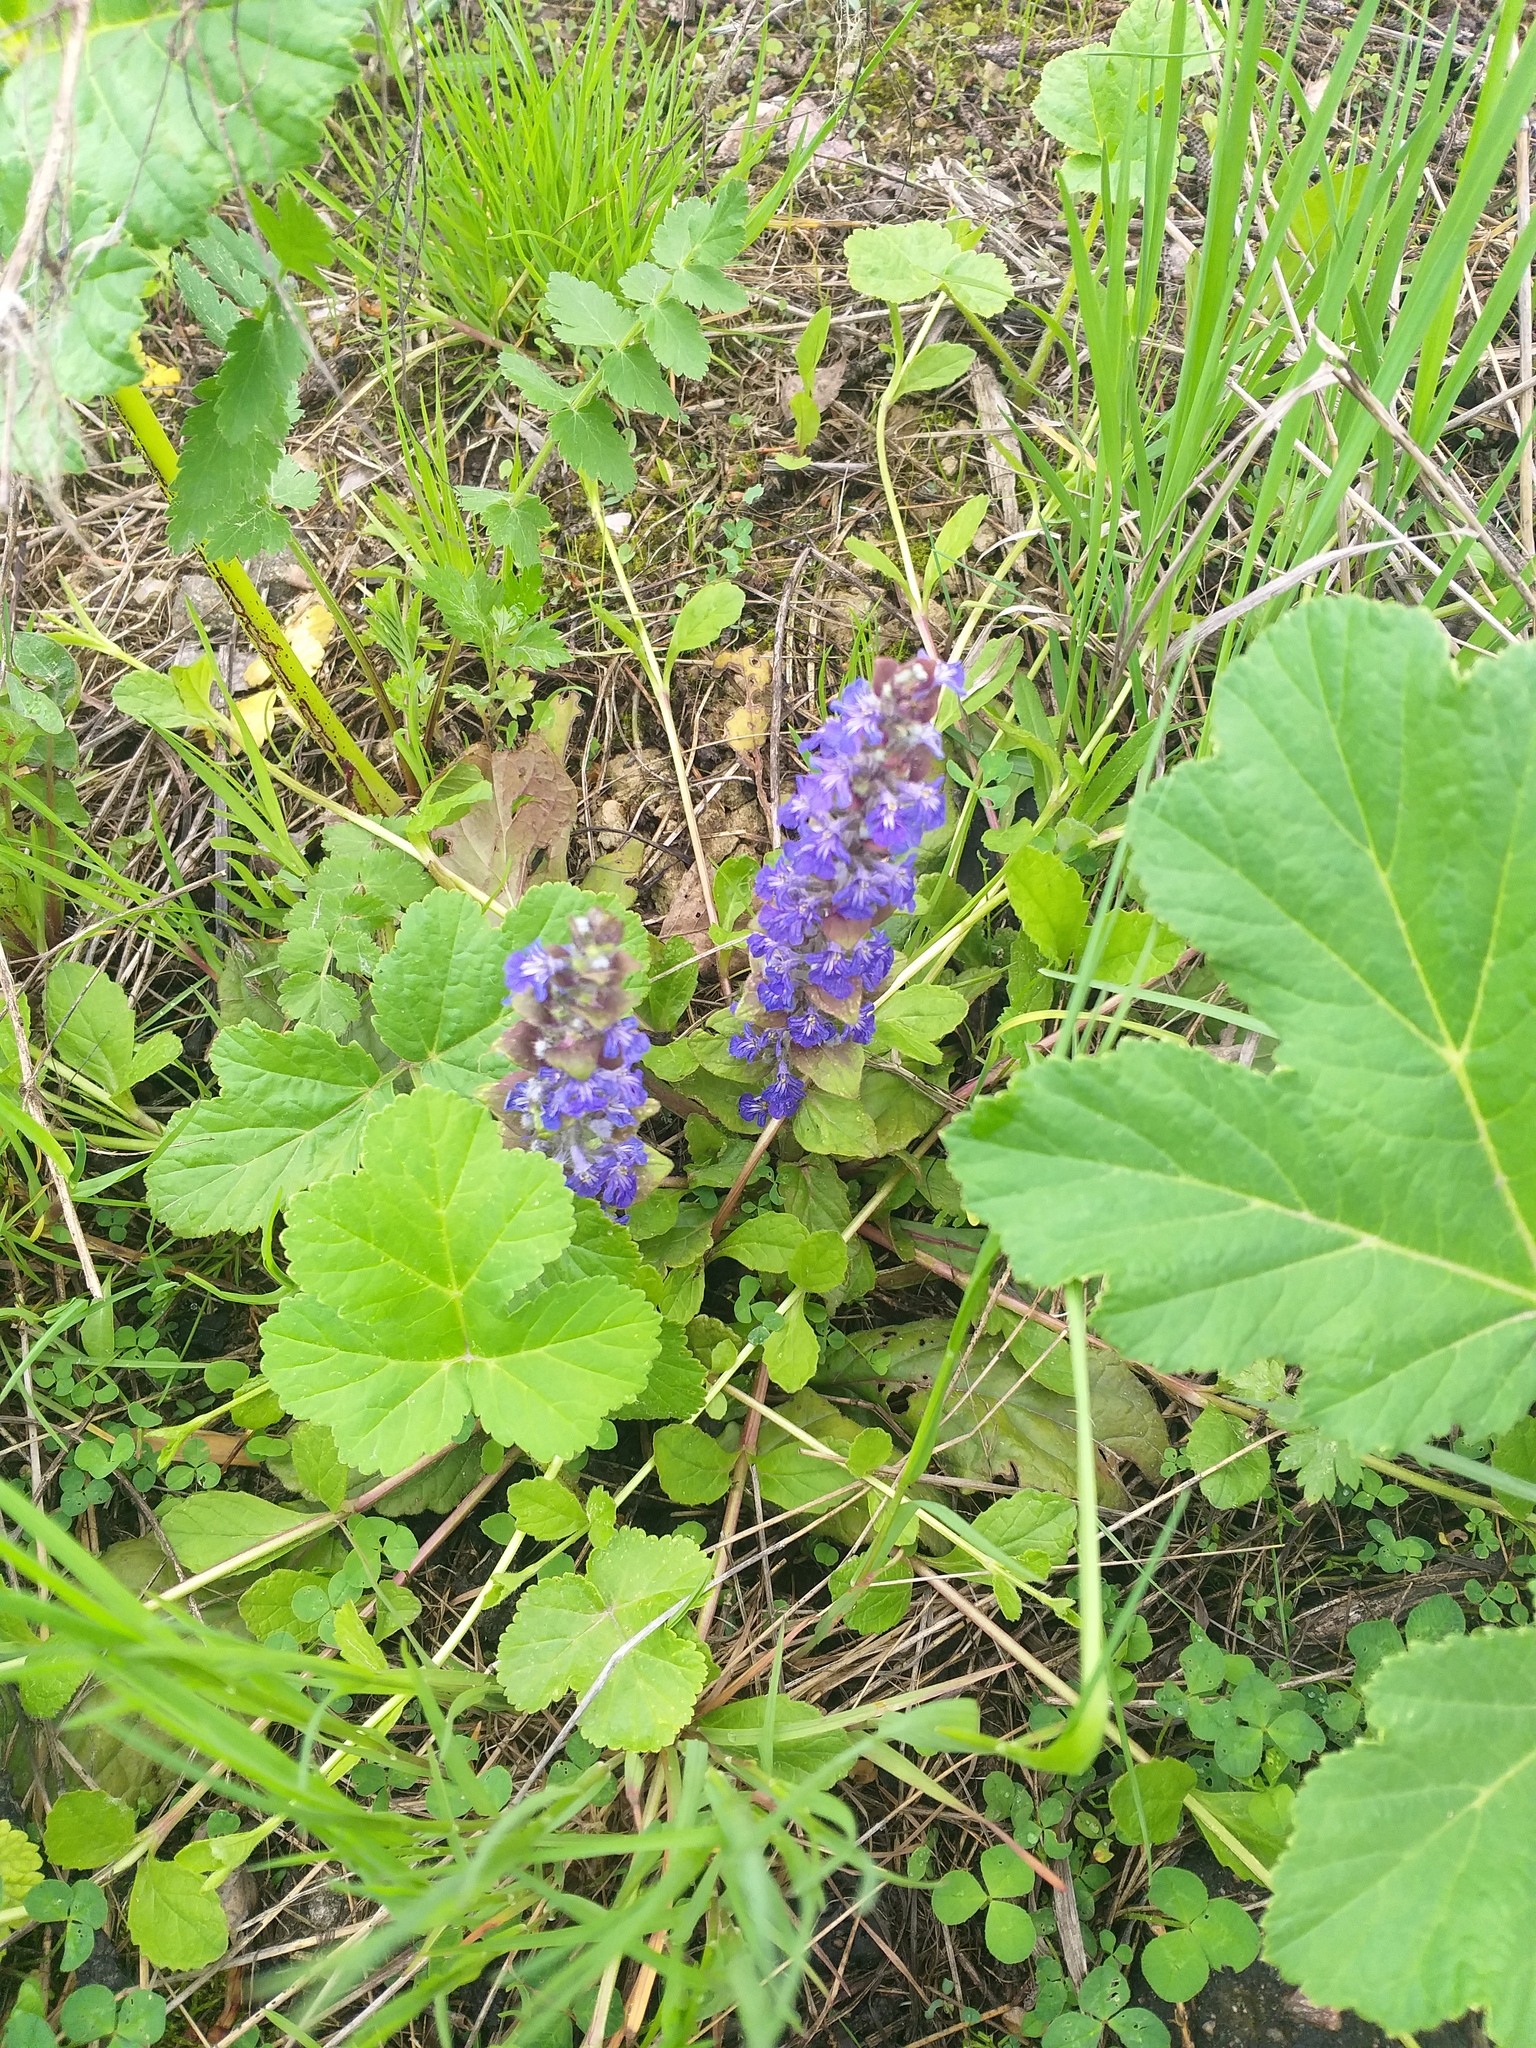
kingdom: Plantae
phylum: Tracheophyta
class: Magnoliopsida
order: Lamiales
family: Lamiaceae
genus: Ajuga
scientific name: Ajuga reptans
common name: Bugle
